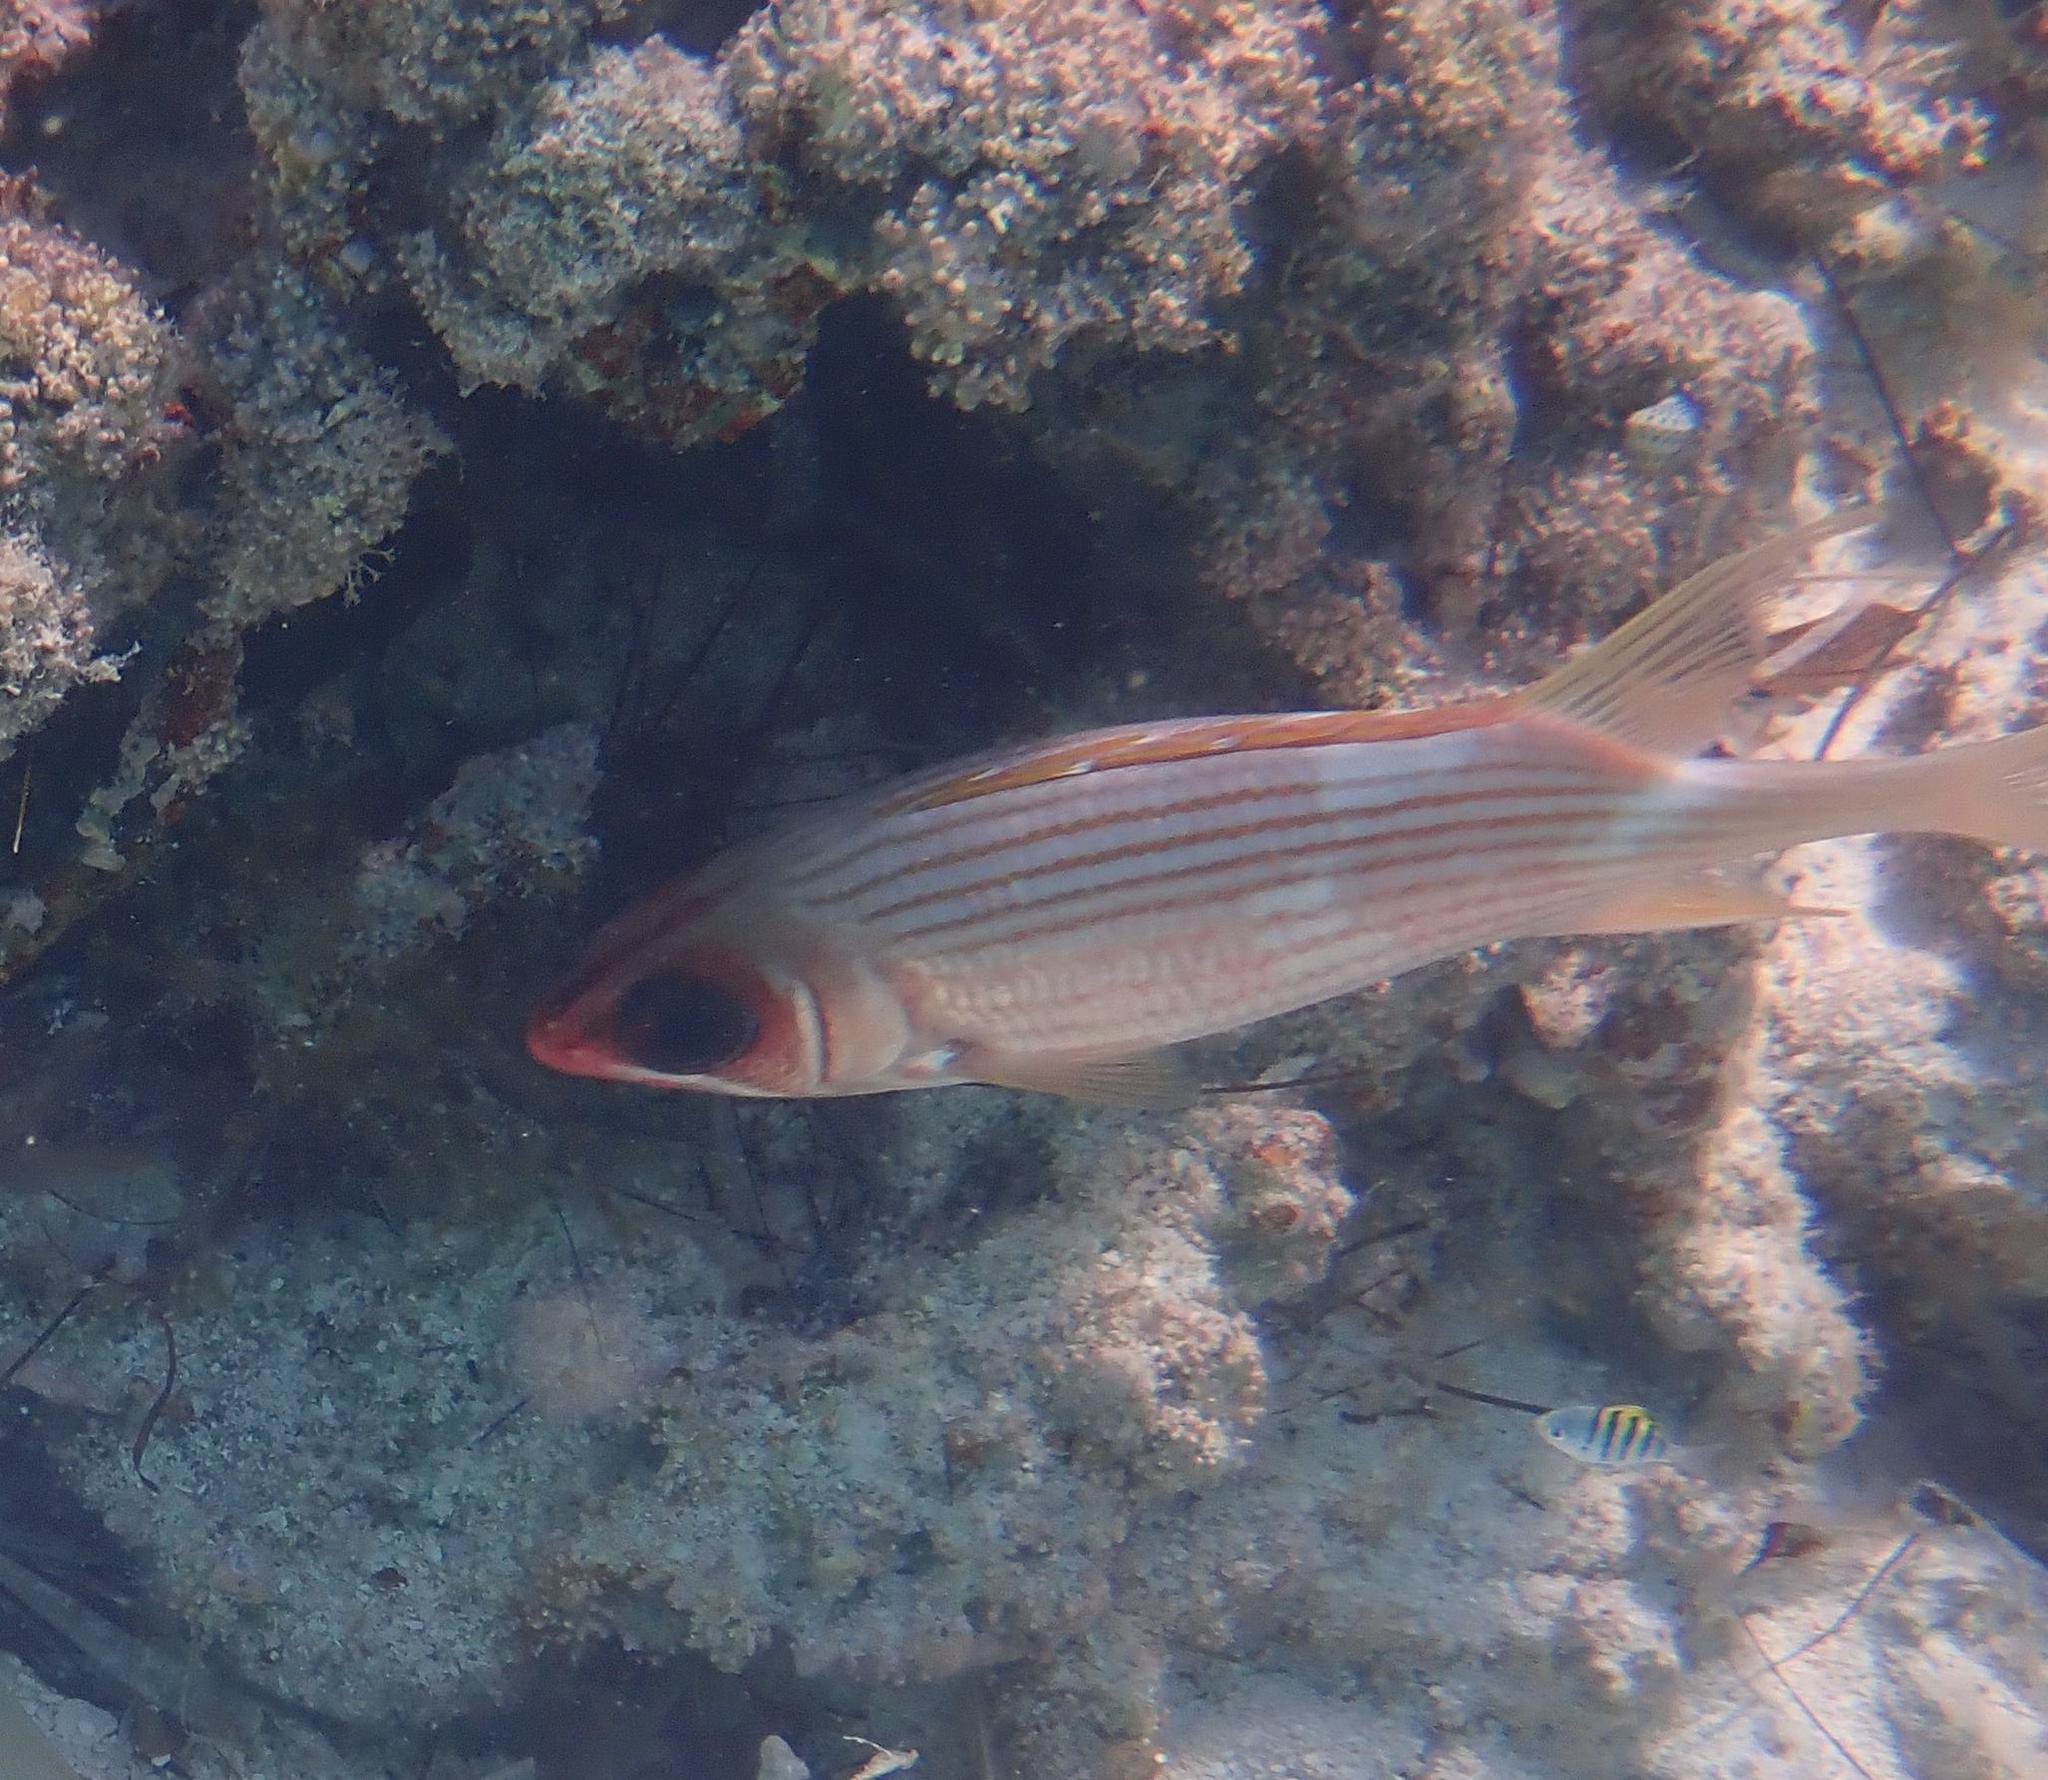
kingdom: Animalia
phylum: Chordata
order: Beryciformes
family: Holocentridae
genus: Holocentrus
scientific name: Holocentrus rufus
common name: Longspine squirrelfish
